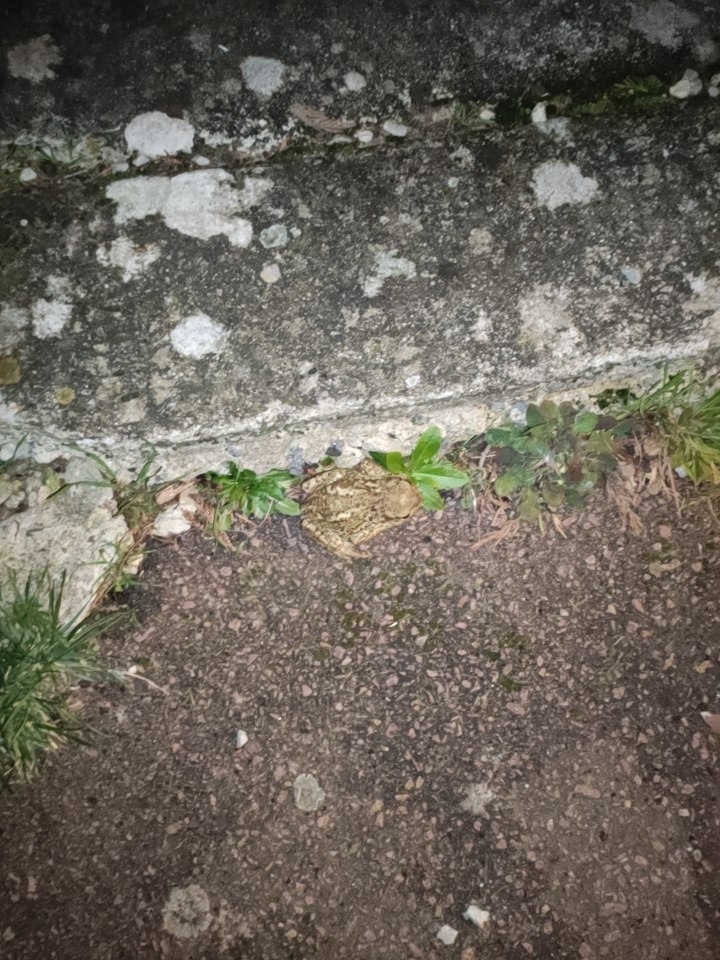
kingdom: Animalia
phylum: Chordata
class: Amphibia
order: Anura
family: Bufonidae
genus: Bufo
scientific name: Bufo bufo
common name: Common toad
